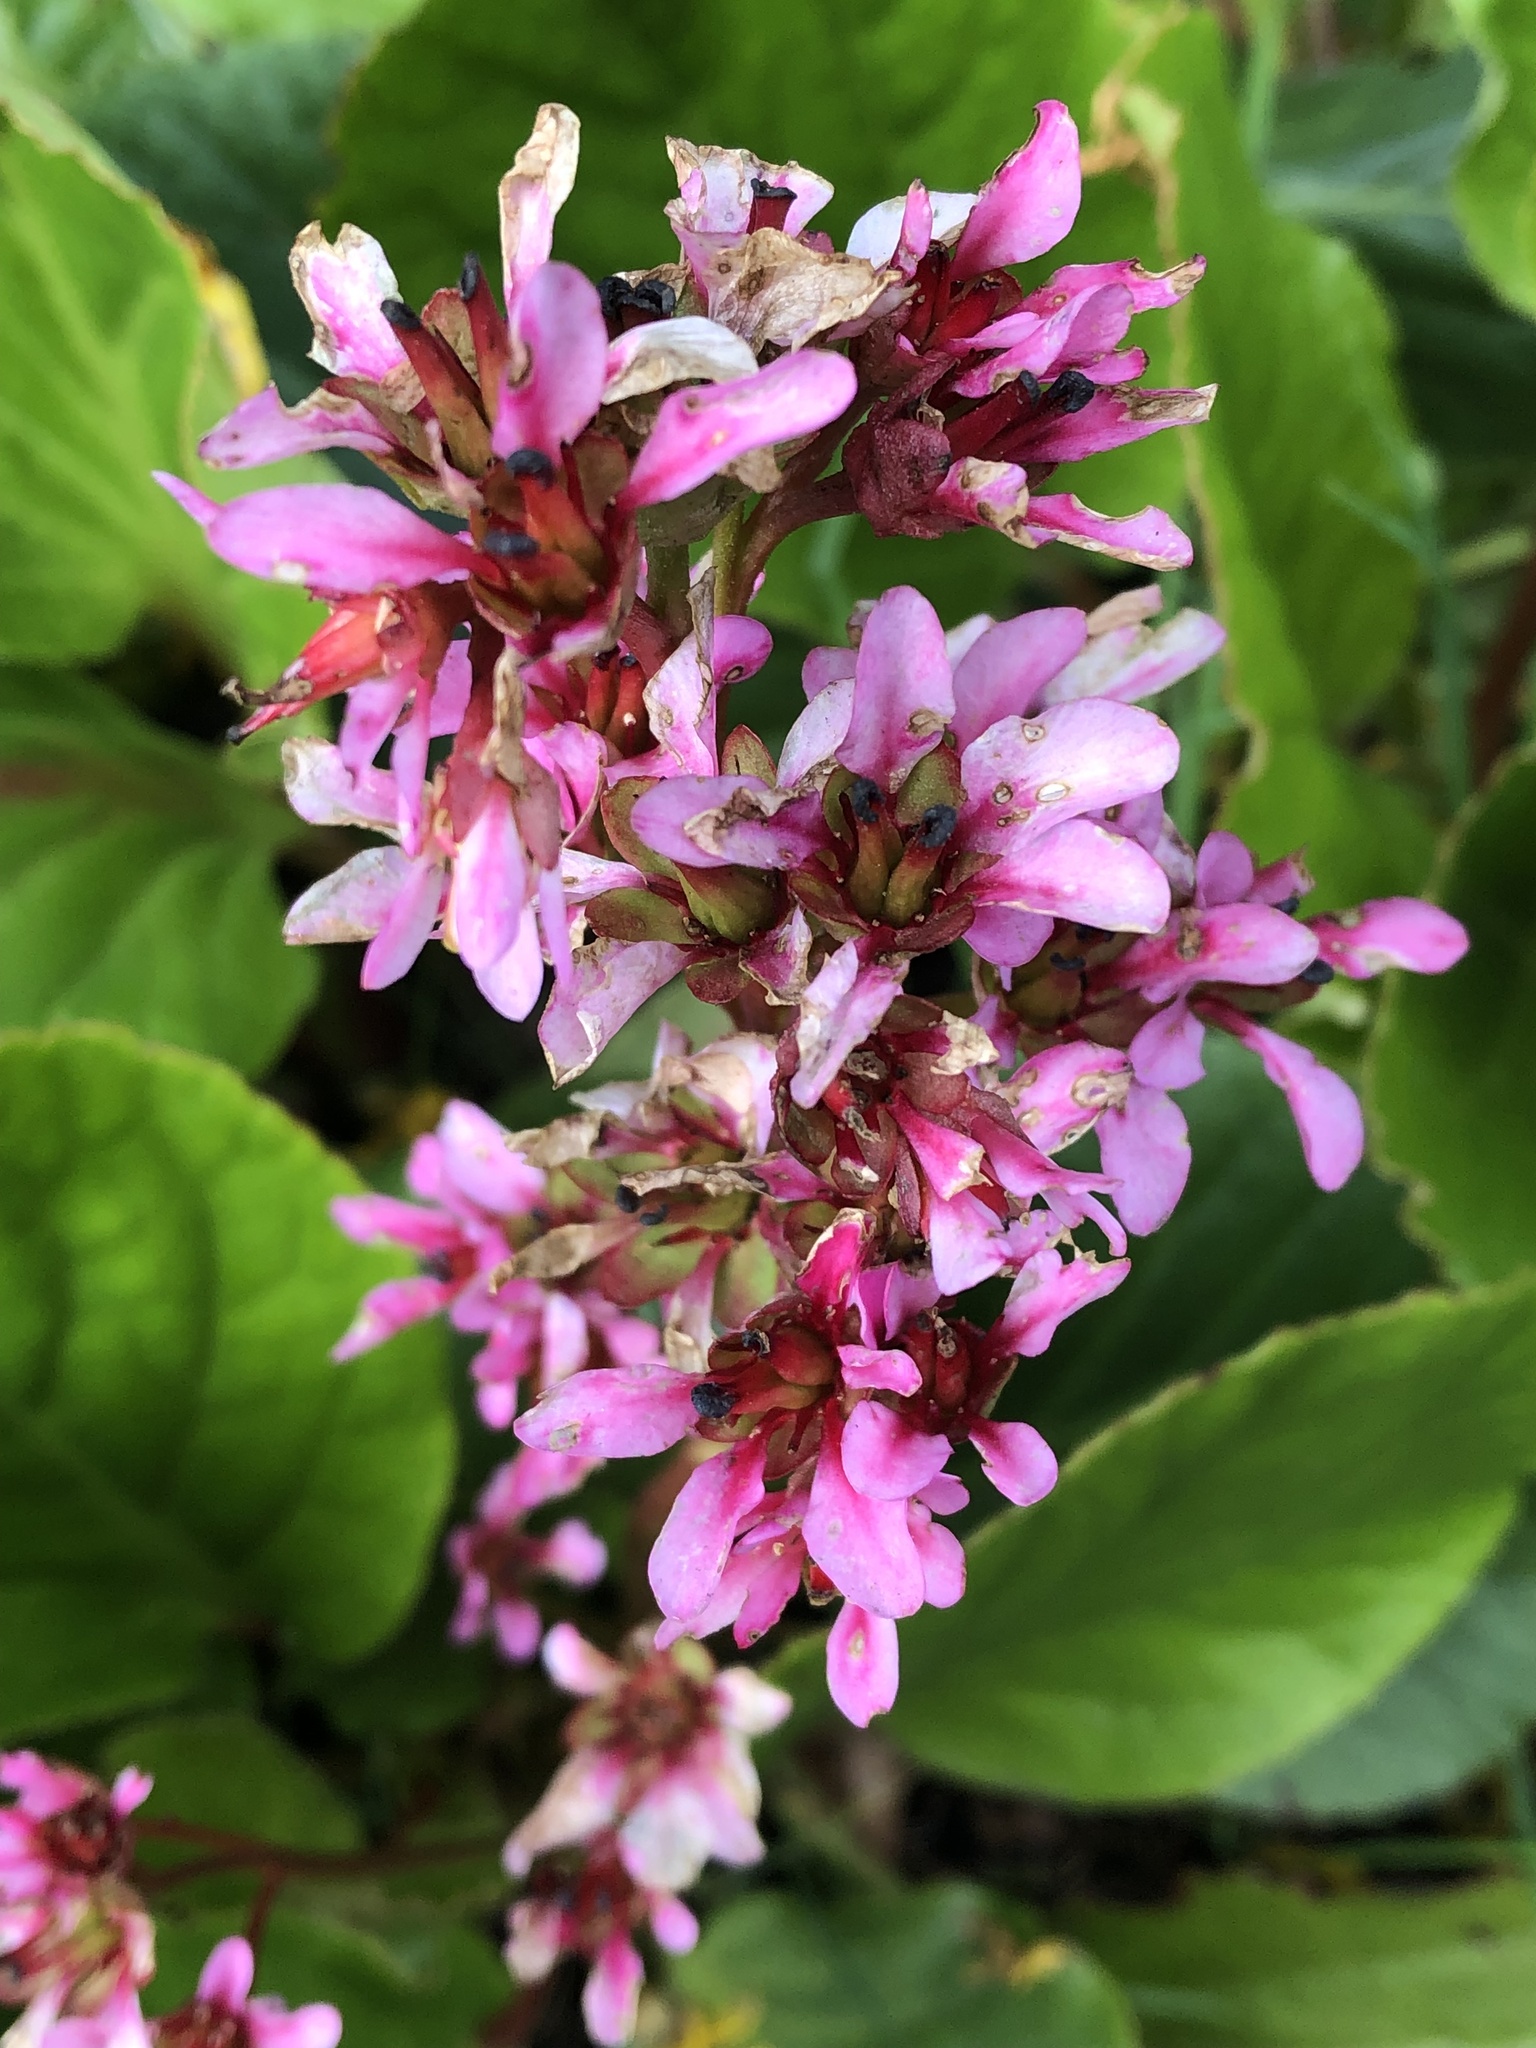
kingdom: Plantae
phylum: Tracheophyta
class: Magnoliopsida
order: Saxifragales
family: Saxifragaceae
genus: Bergenia
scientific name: Bergenia crassifolia
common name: Elephant-ears
